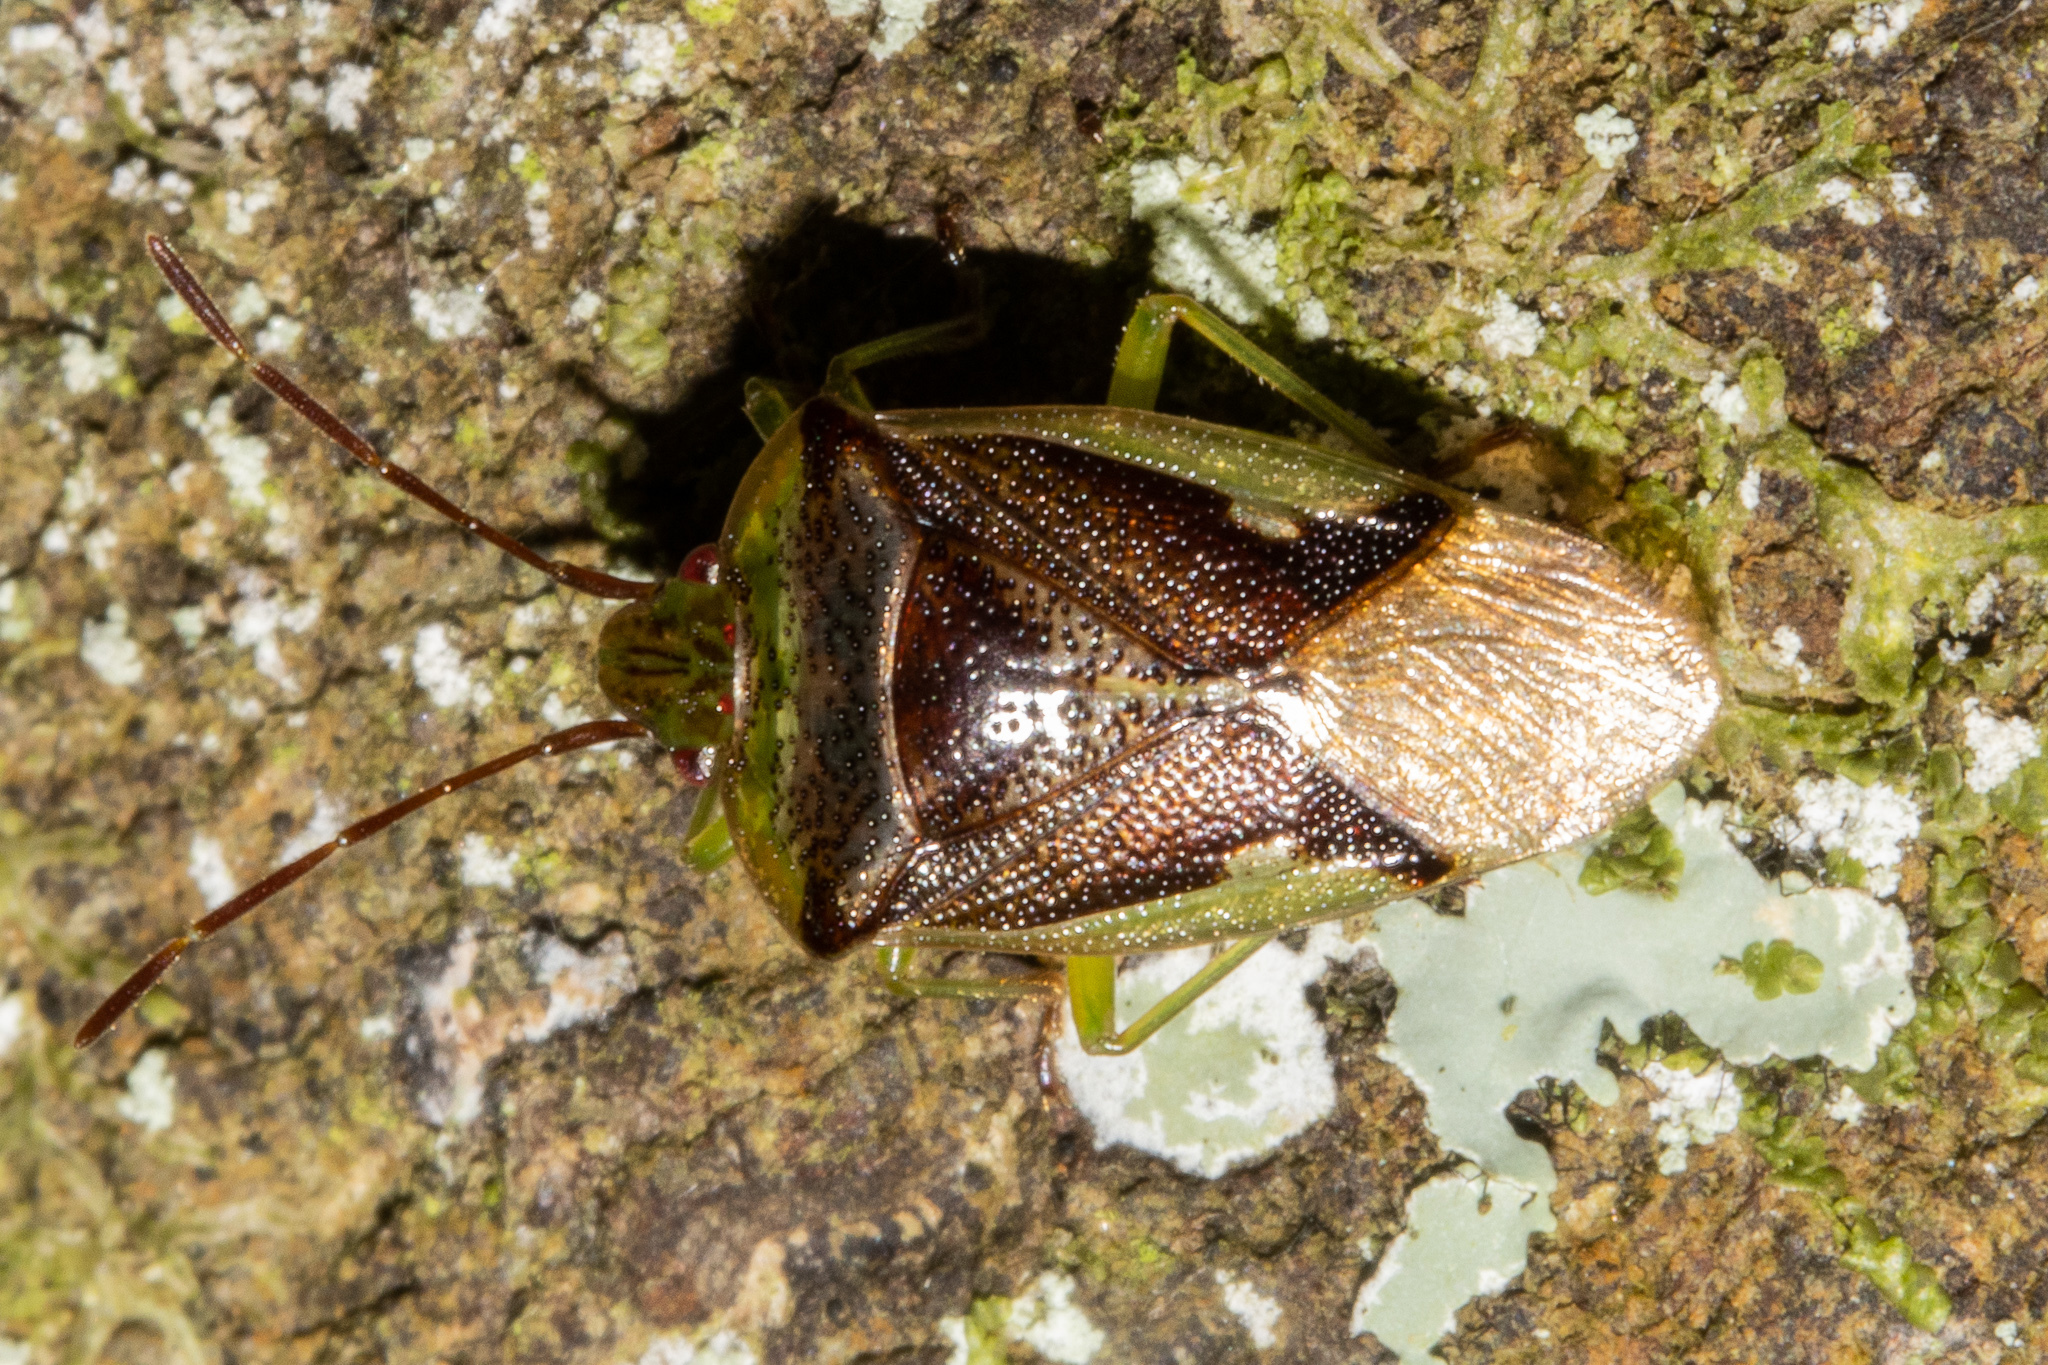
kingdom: Animalia
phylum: Arthropoda
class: Insecta
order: Hemiptera
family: Acanthosomatidae
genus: Oncacontias
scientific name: Oncacontias vittatus
